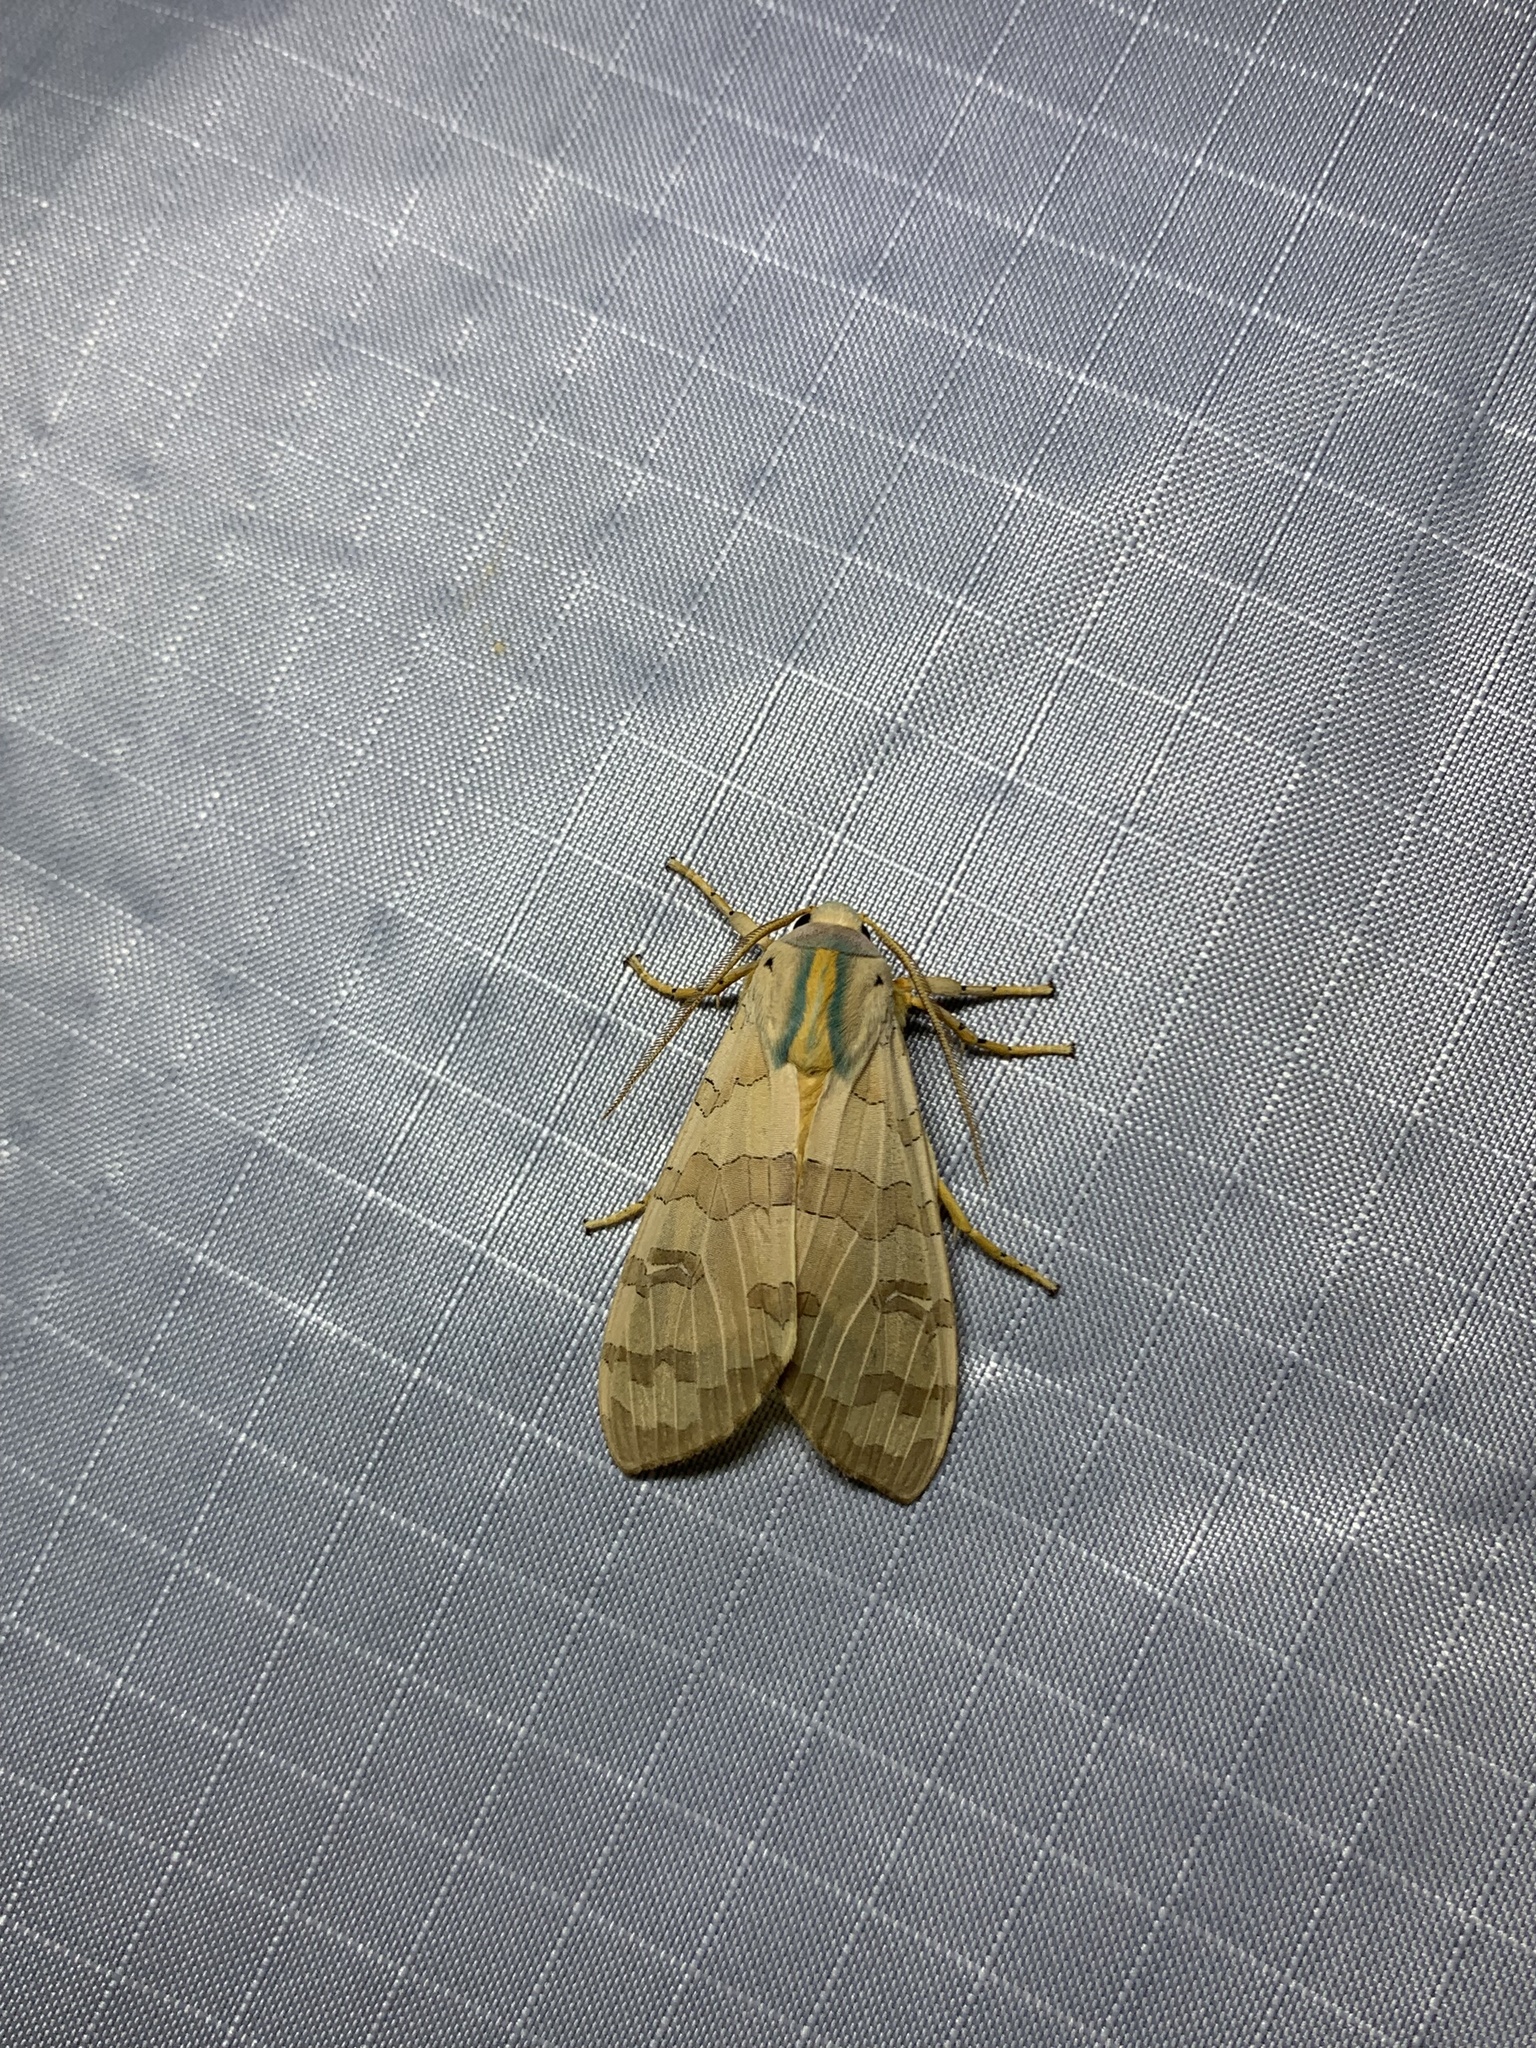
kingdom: Animalia
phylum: Arthropoda
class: Insecta
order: Lepidoptera
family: Erebidae
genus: Halysidota
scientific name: Halysidota
